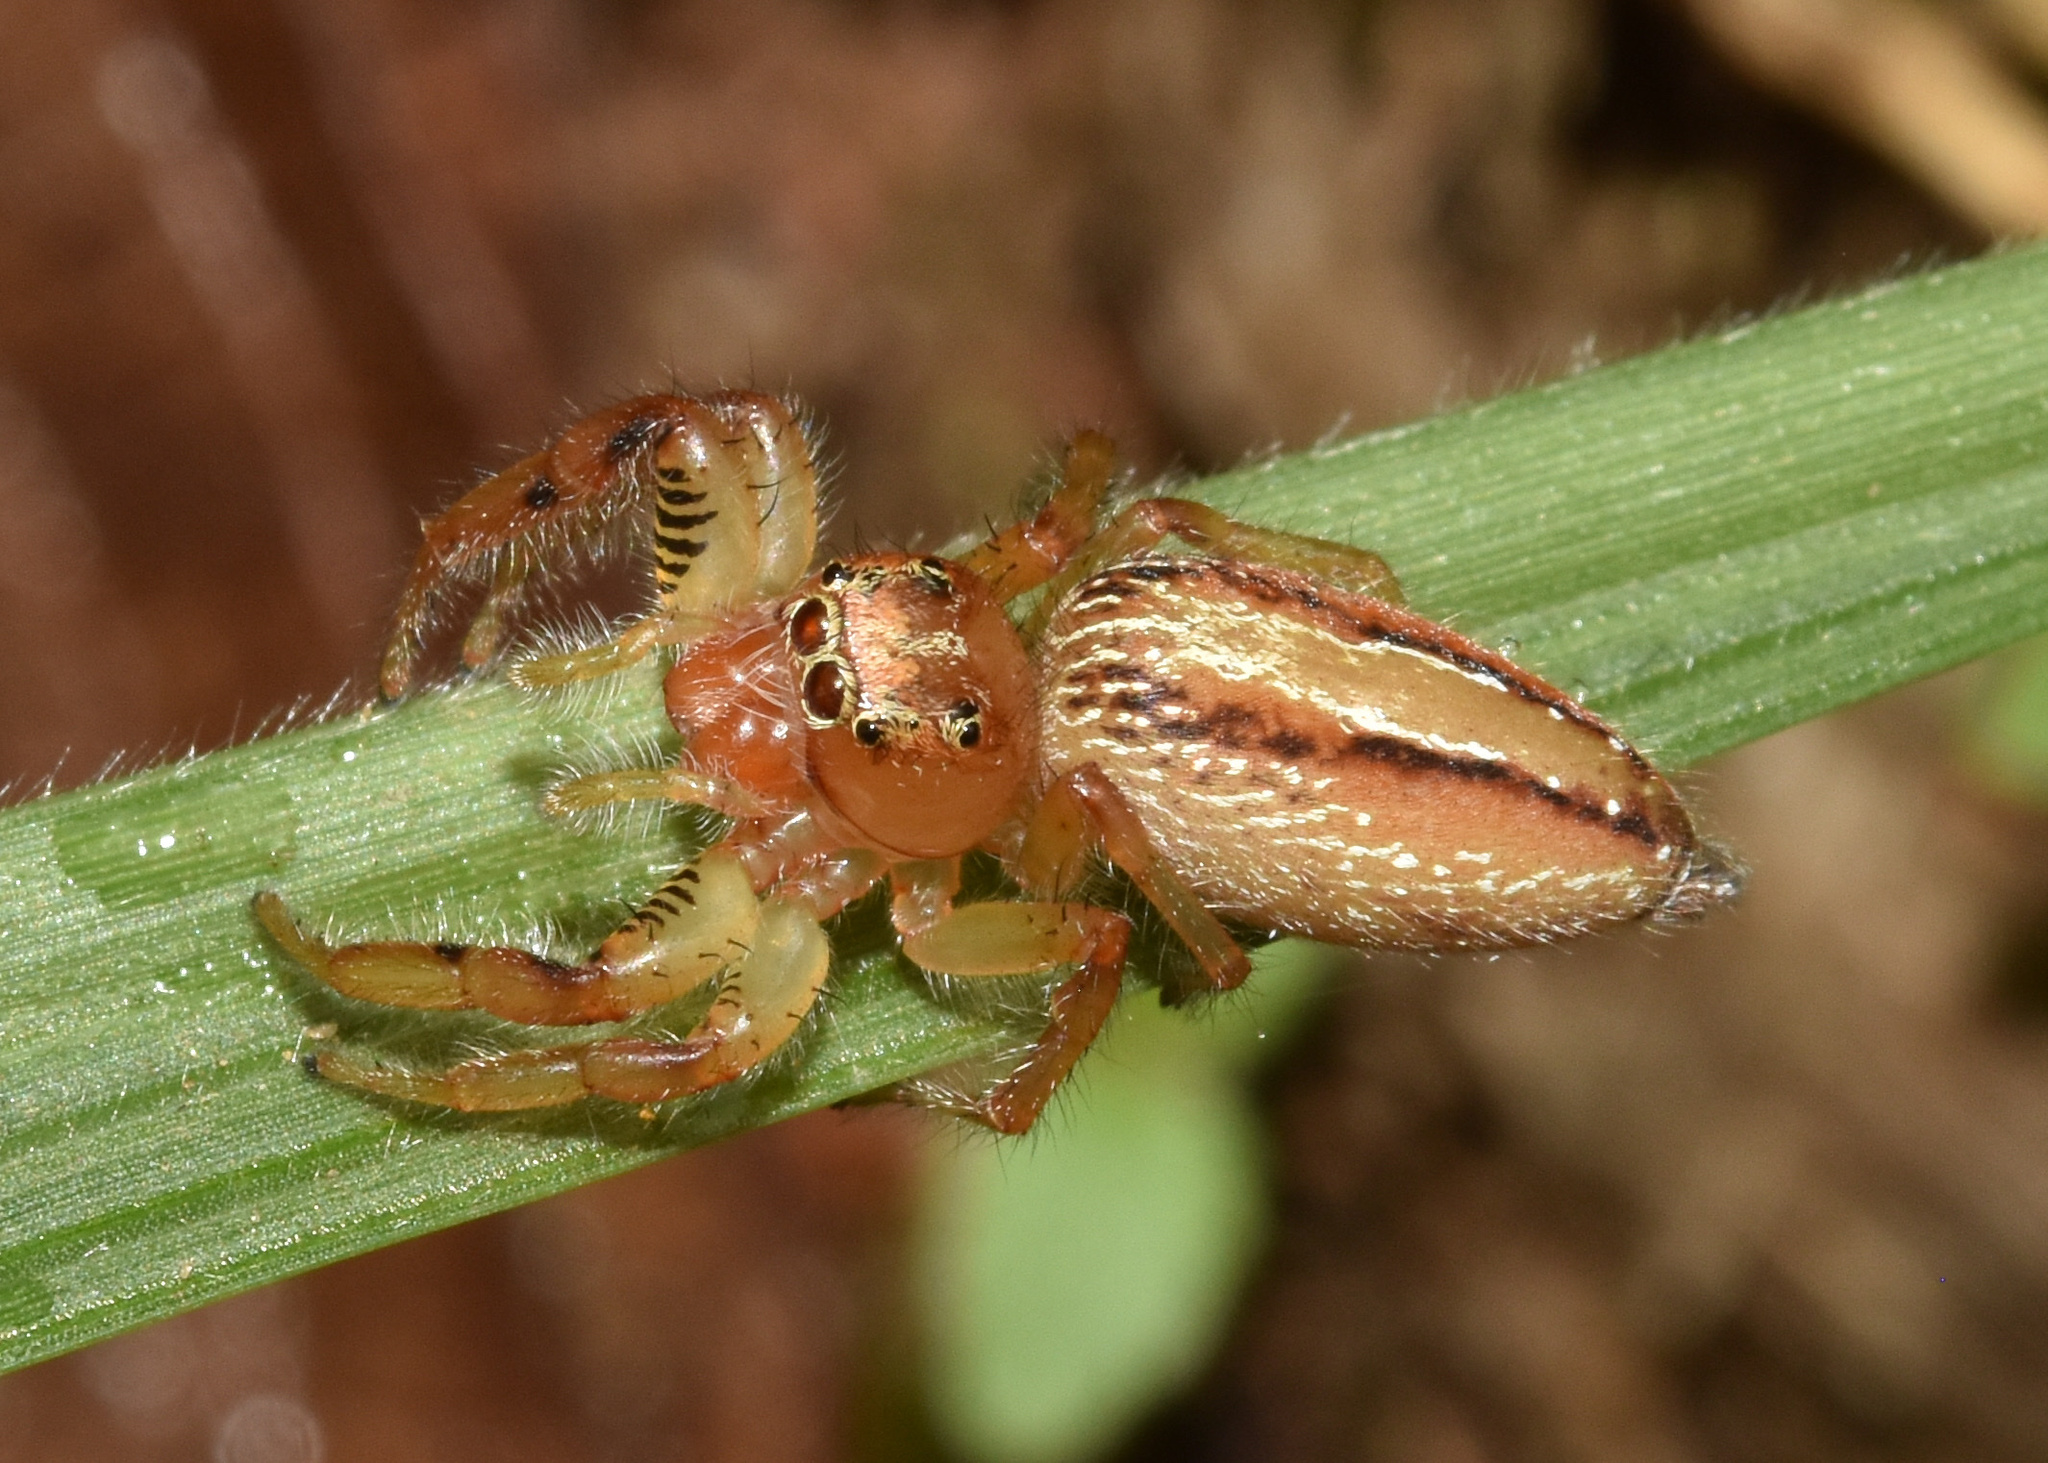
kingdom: Animalia
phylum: Arthropoda
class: Arachnida
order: Araneae
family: Salticidae
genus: Thyene
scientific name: Thyene ogdeni
